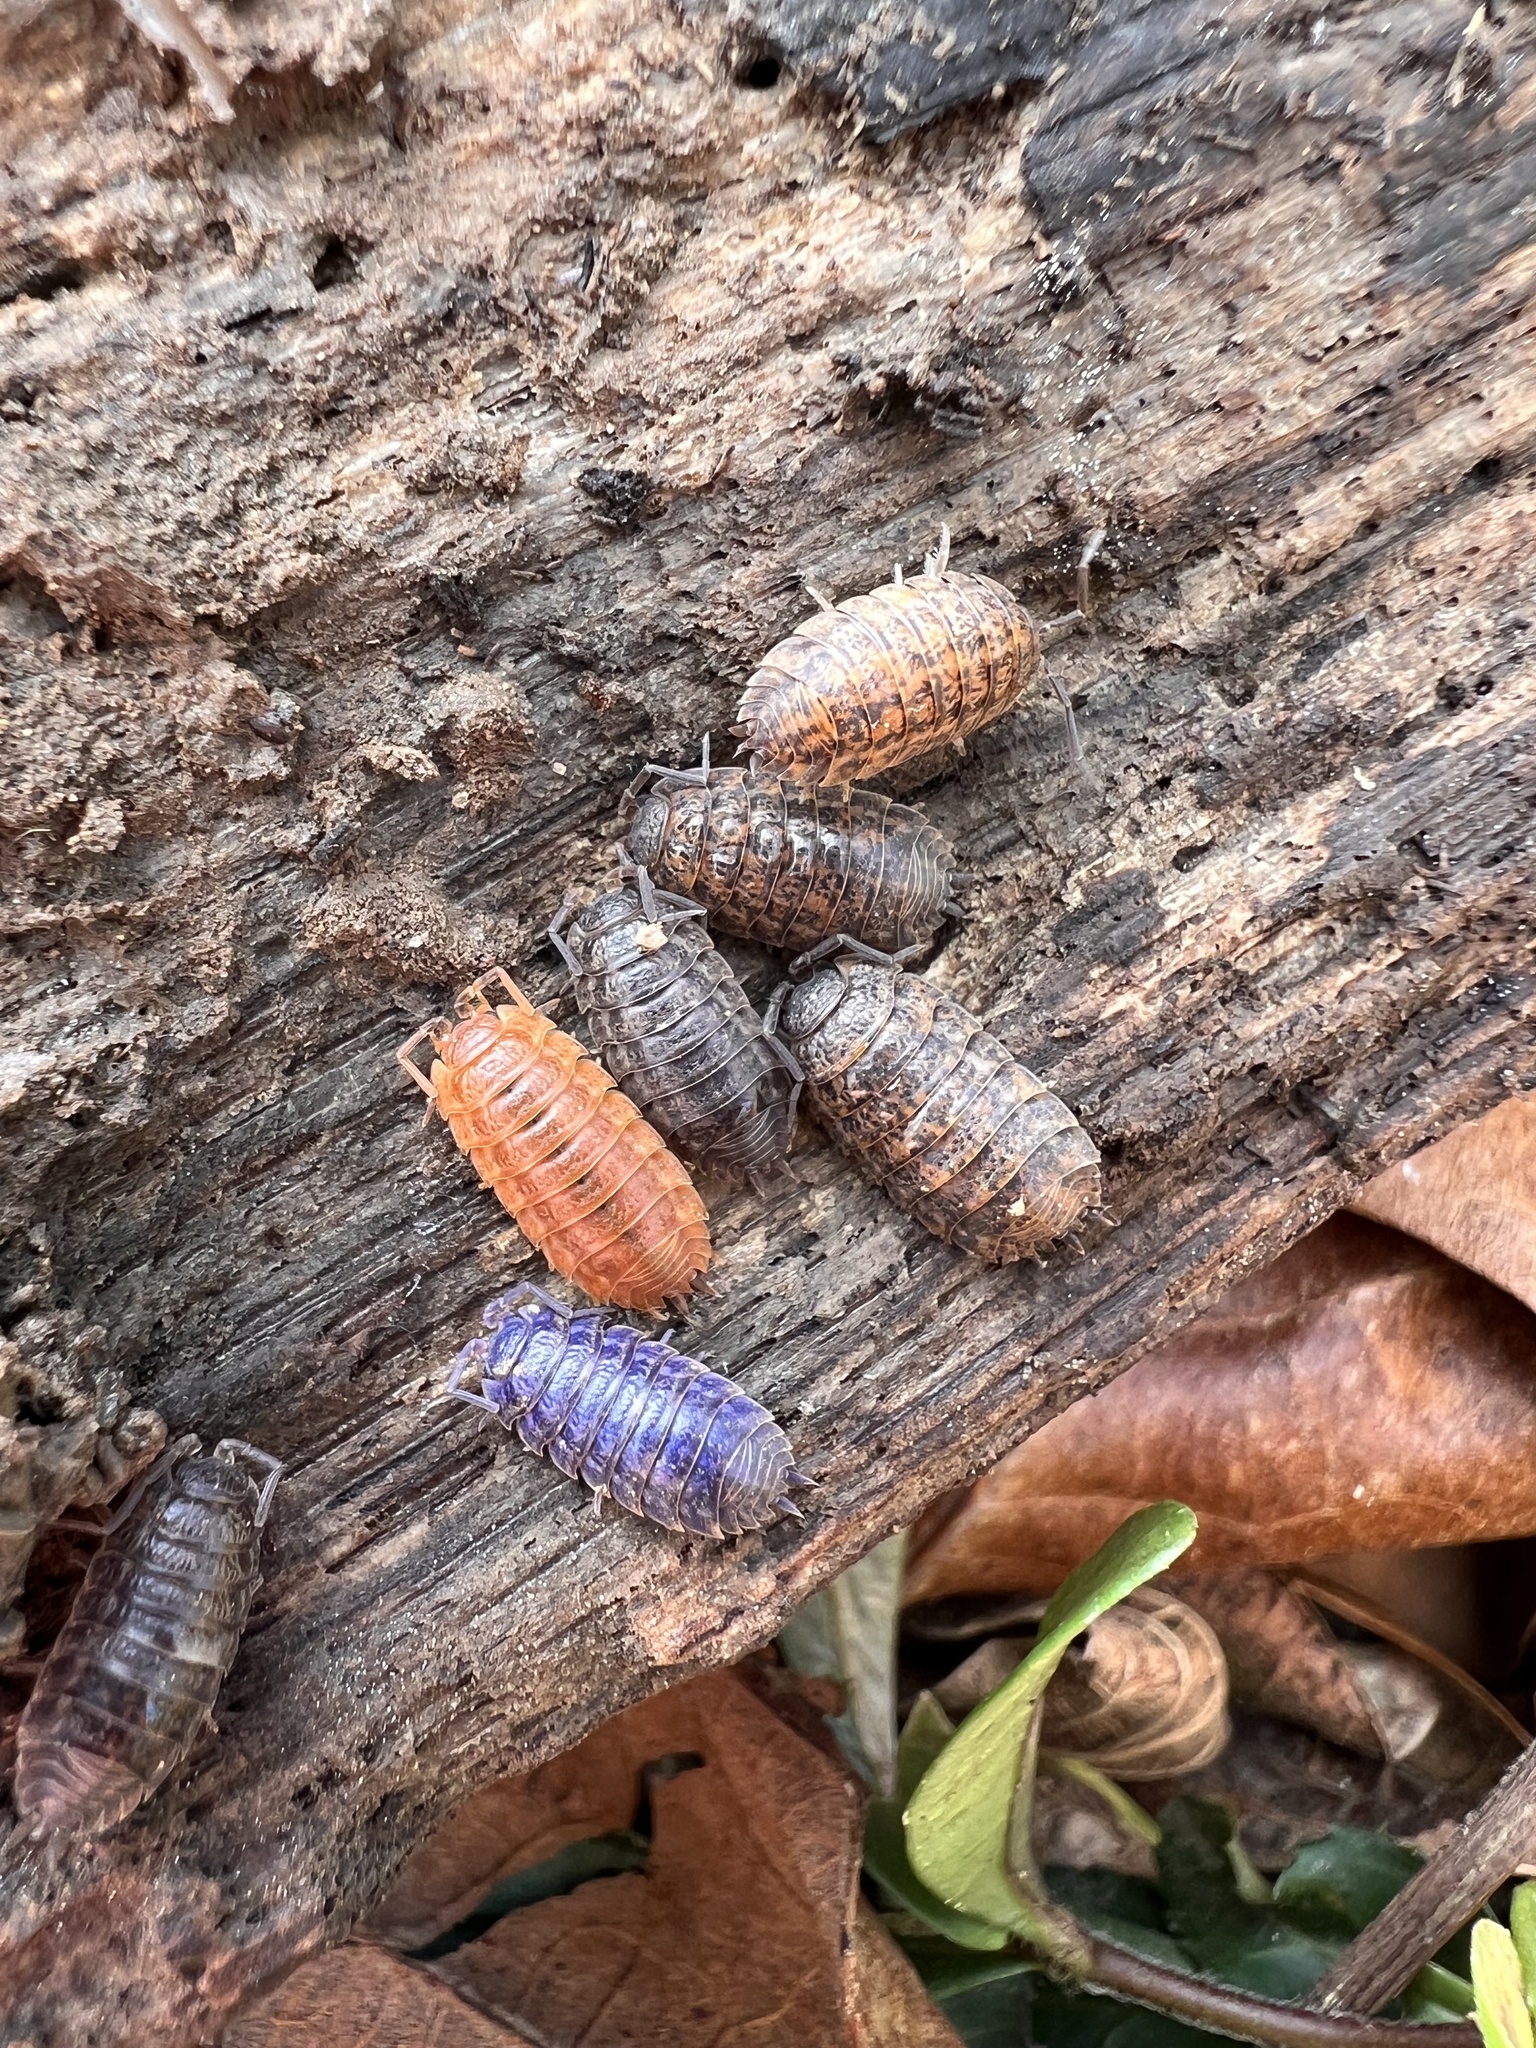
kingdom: Viruses
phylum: Nucleocytoviricota
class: Megaviricetes
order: Pimascovirales
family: Iridoviridae
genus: Iridovirus
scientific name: Iridovirus Invertebrate iridescent virus 31
